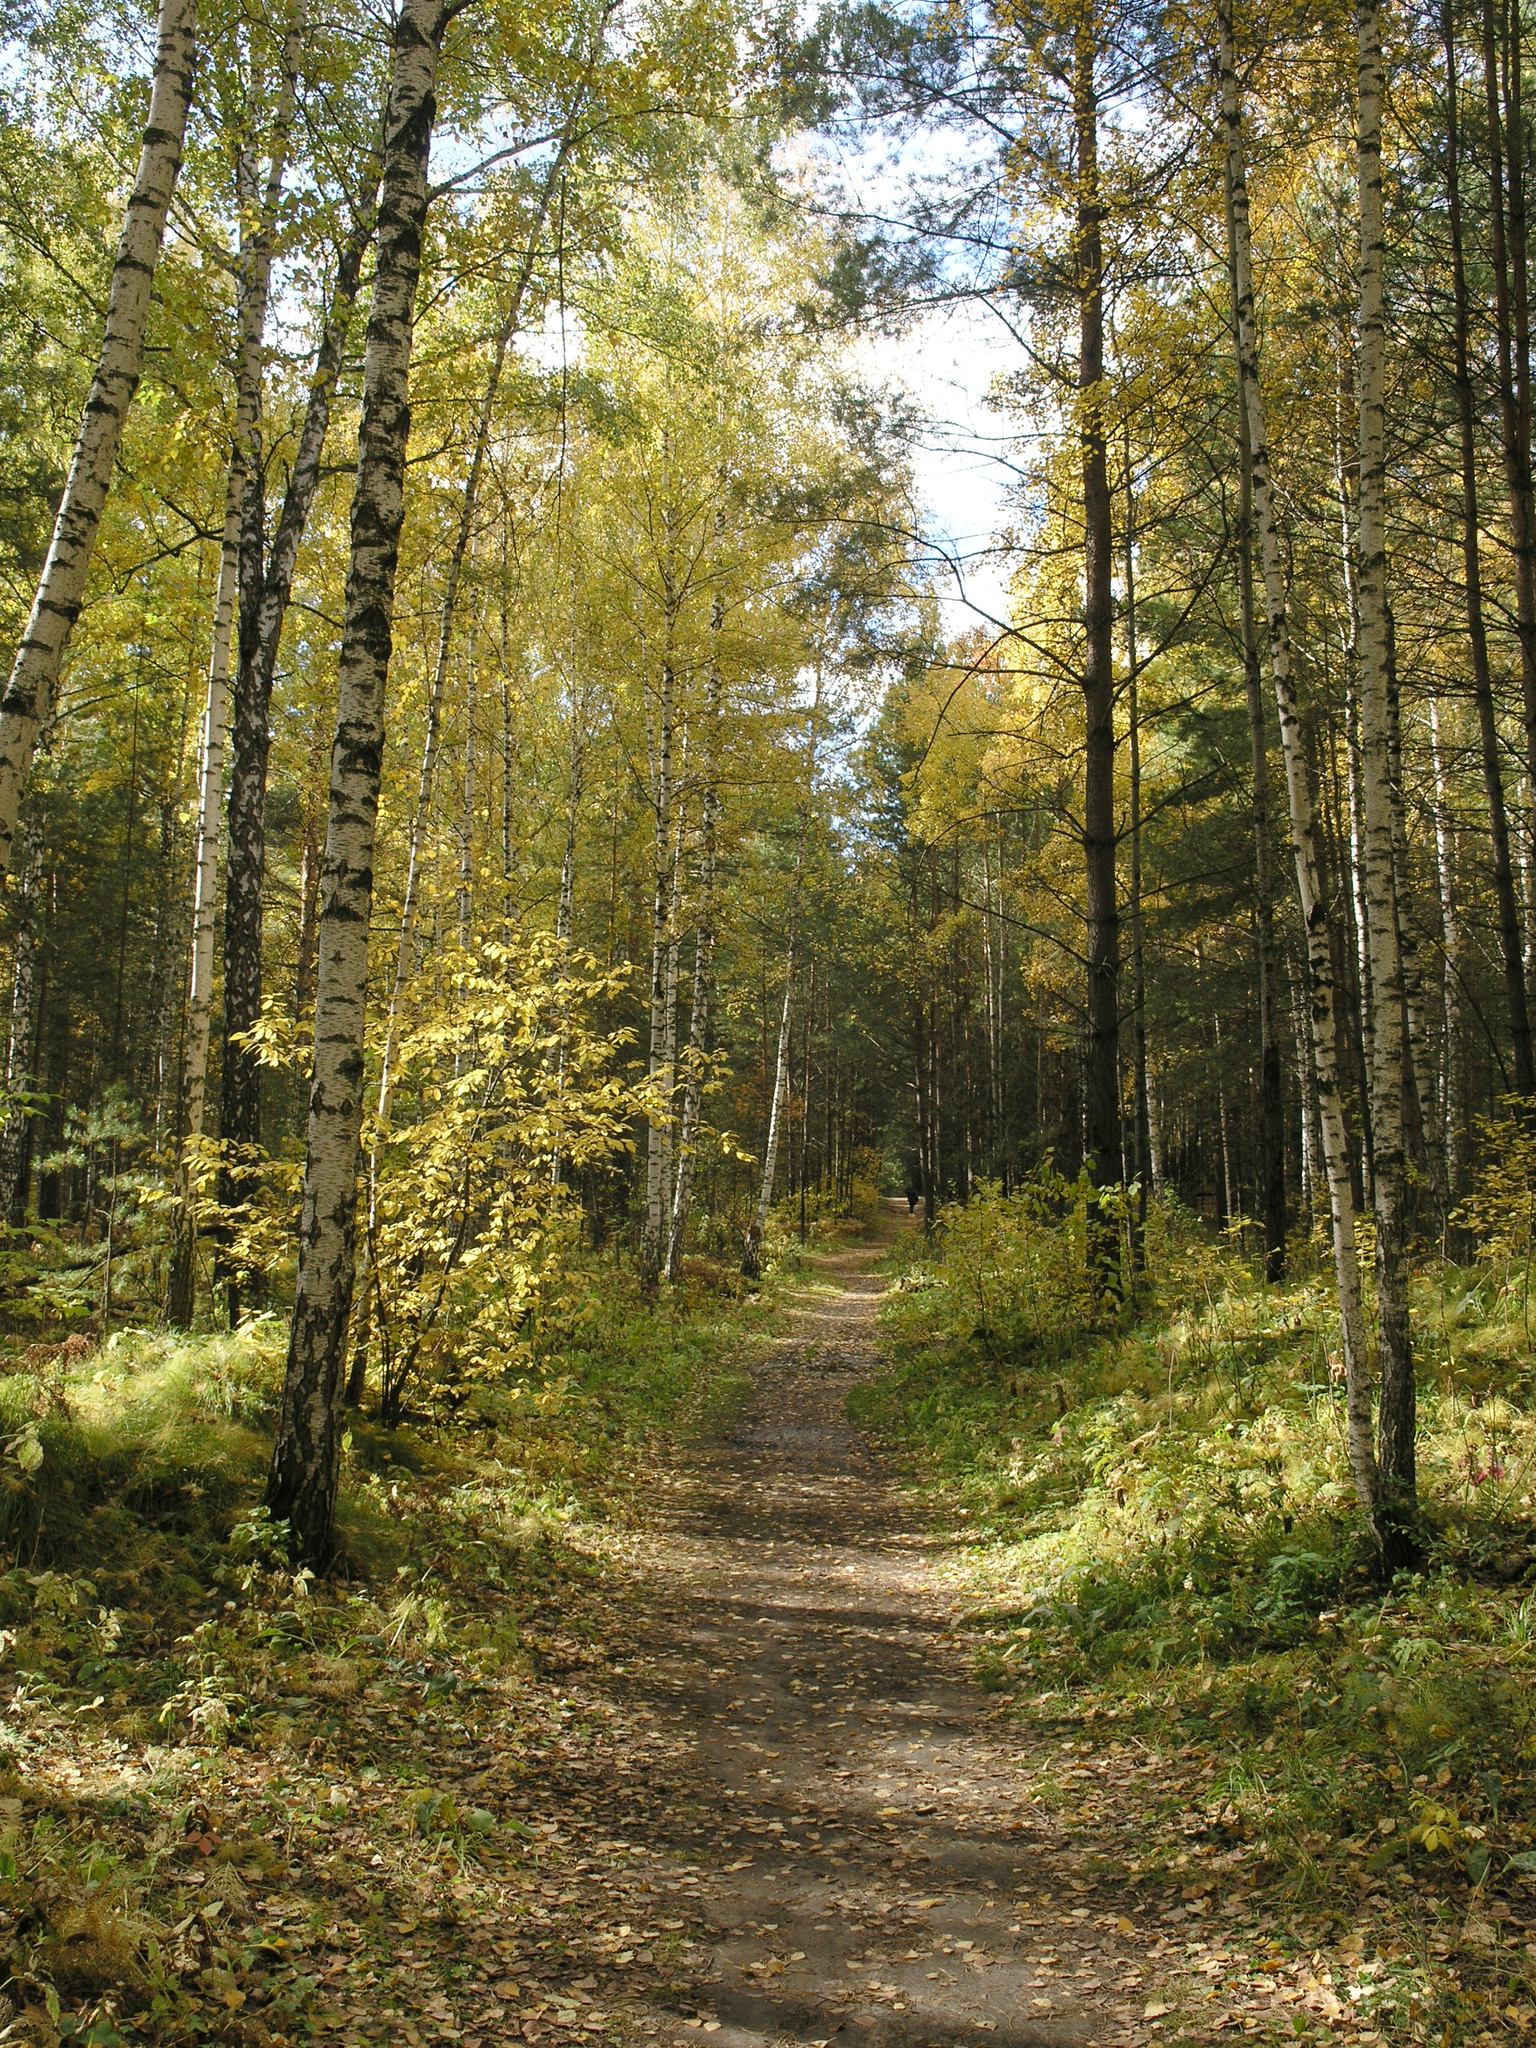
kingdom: Plantae
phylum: Tracheophyta
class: Magnoliopsida
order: Fagales
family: Betulaceae
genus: Betula
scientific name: Betula pendula
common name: Silver birch
